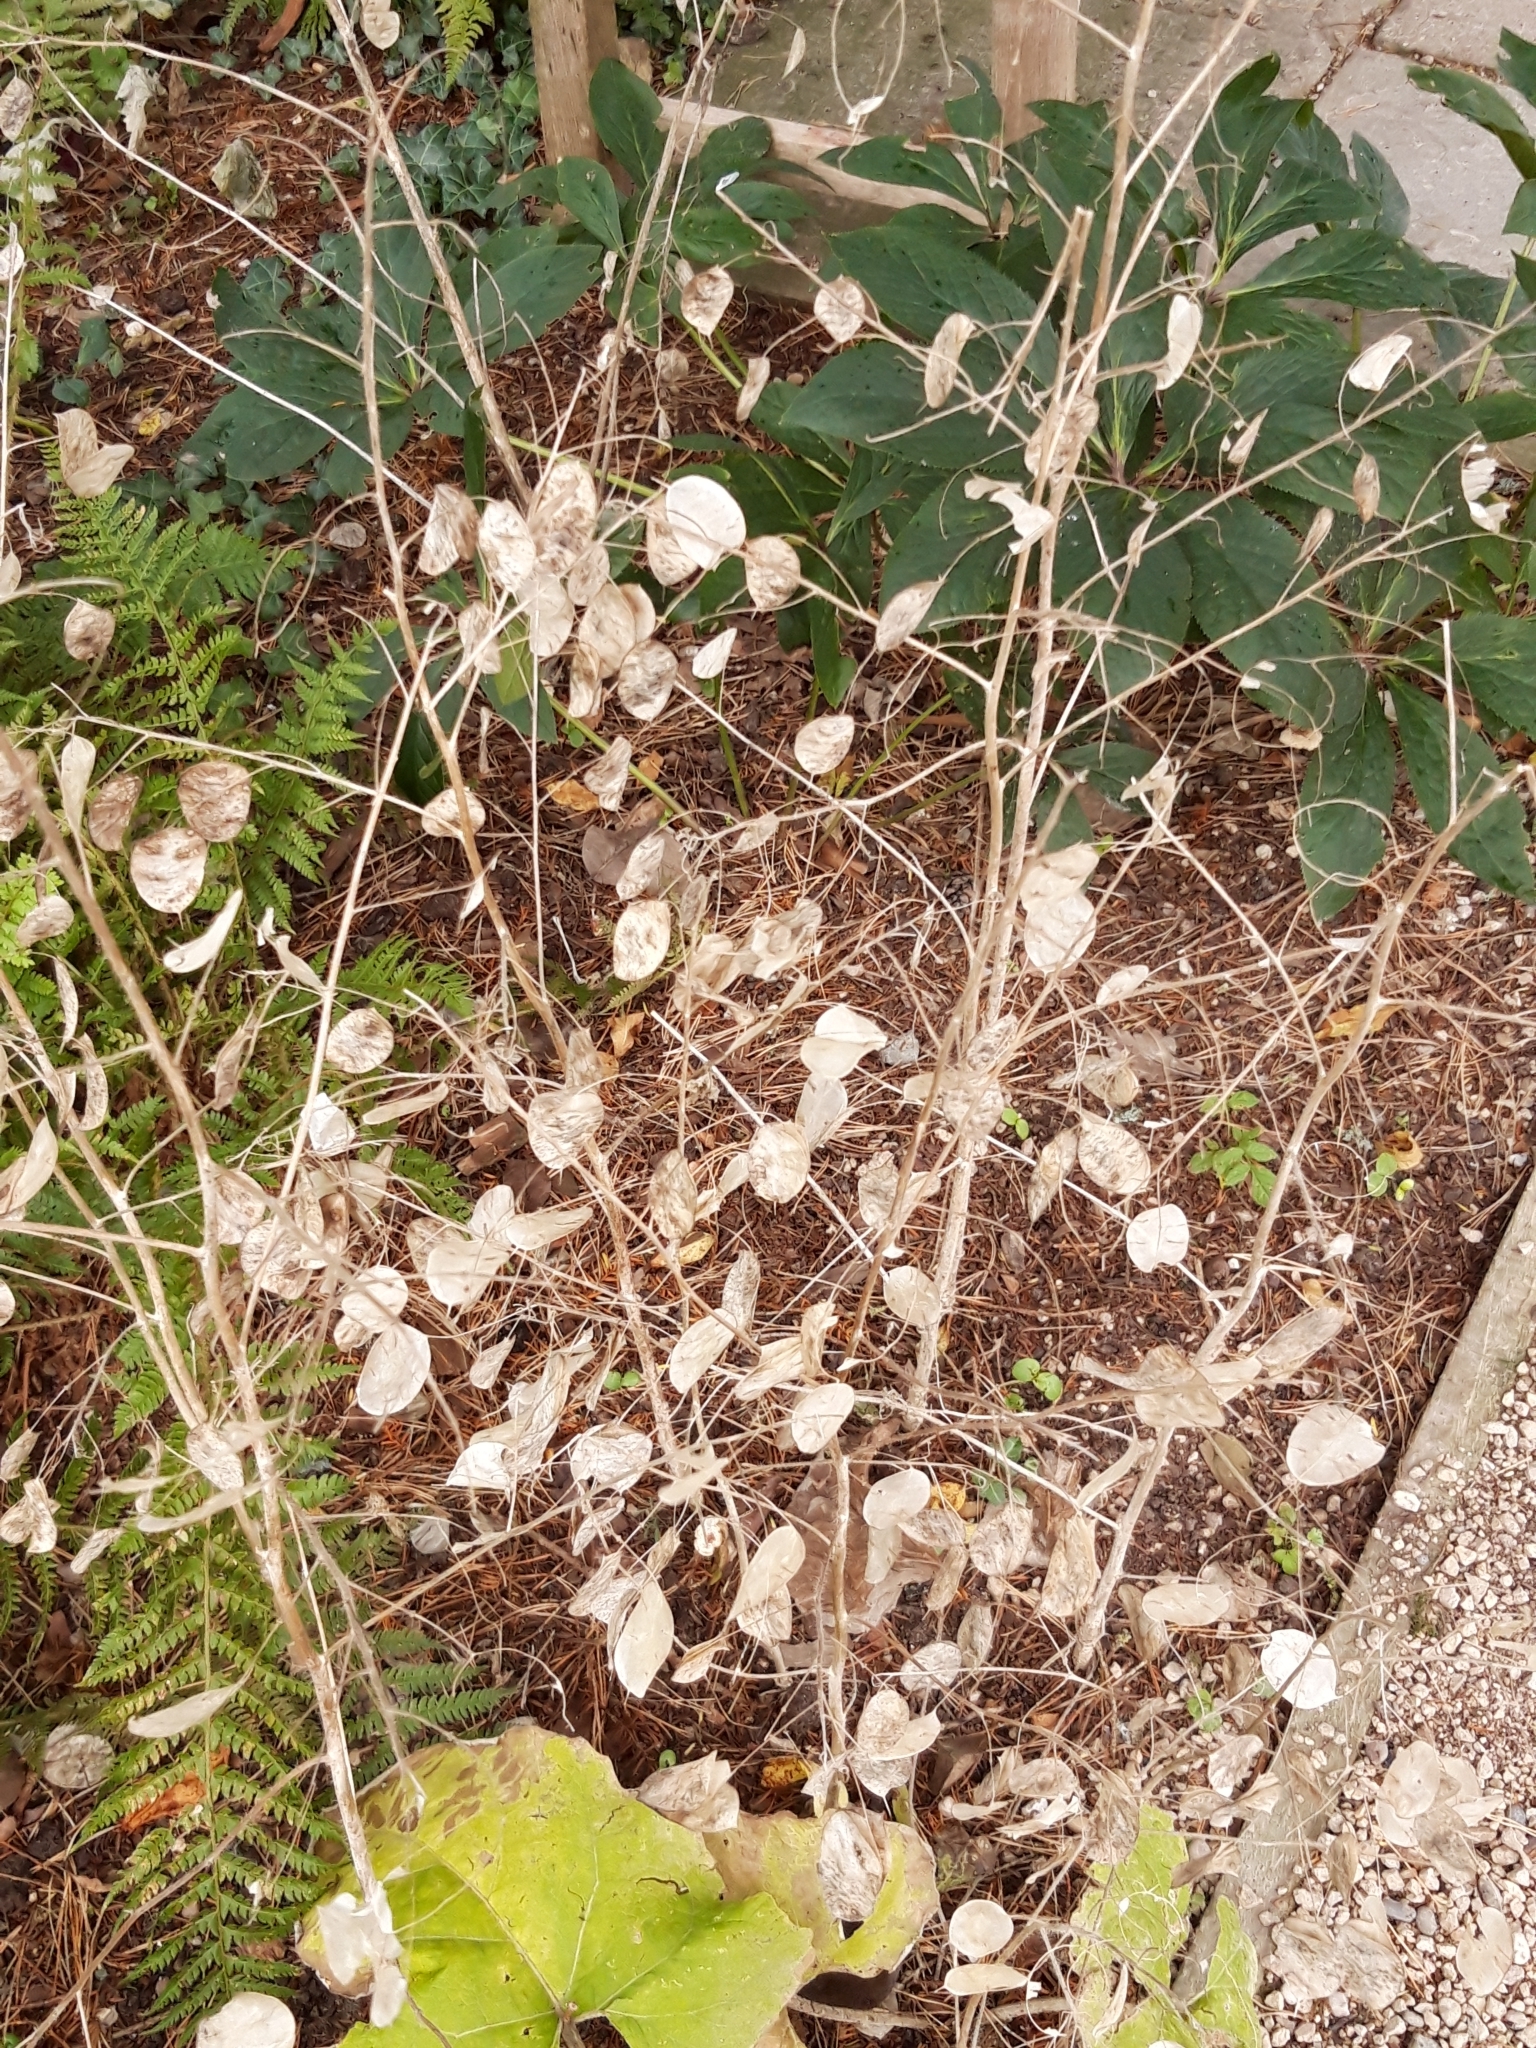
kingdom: Plantae
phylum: Tracheophyta
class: Magnoliopsida
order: Brassicales
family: Brassicaceae
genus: Lunaria
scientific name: Lunaria annua
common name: Honesty
